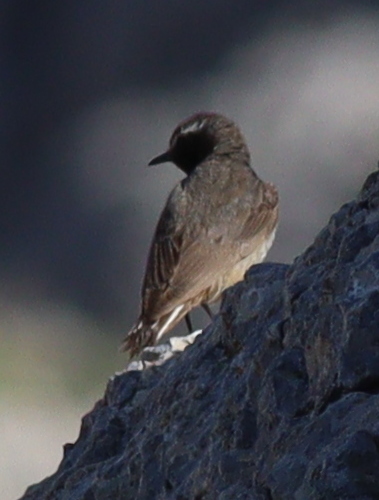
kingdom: Animalia
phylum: Chordata
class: Aves
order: Passeriformes
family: Muscicapidae
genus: Oenanthe
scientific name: Oenanthe xanthoprymna
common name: Kurdish wheatear
